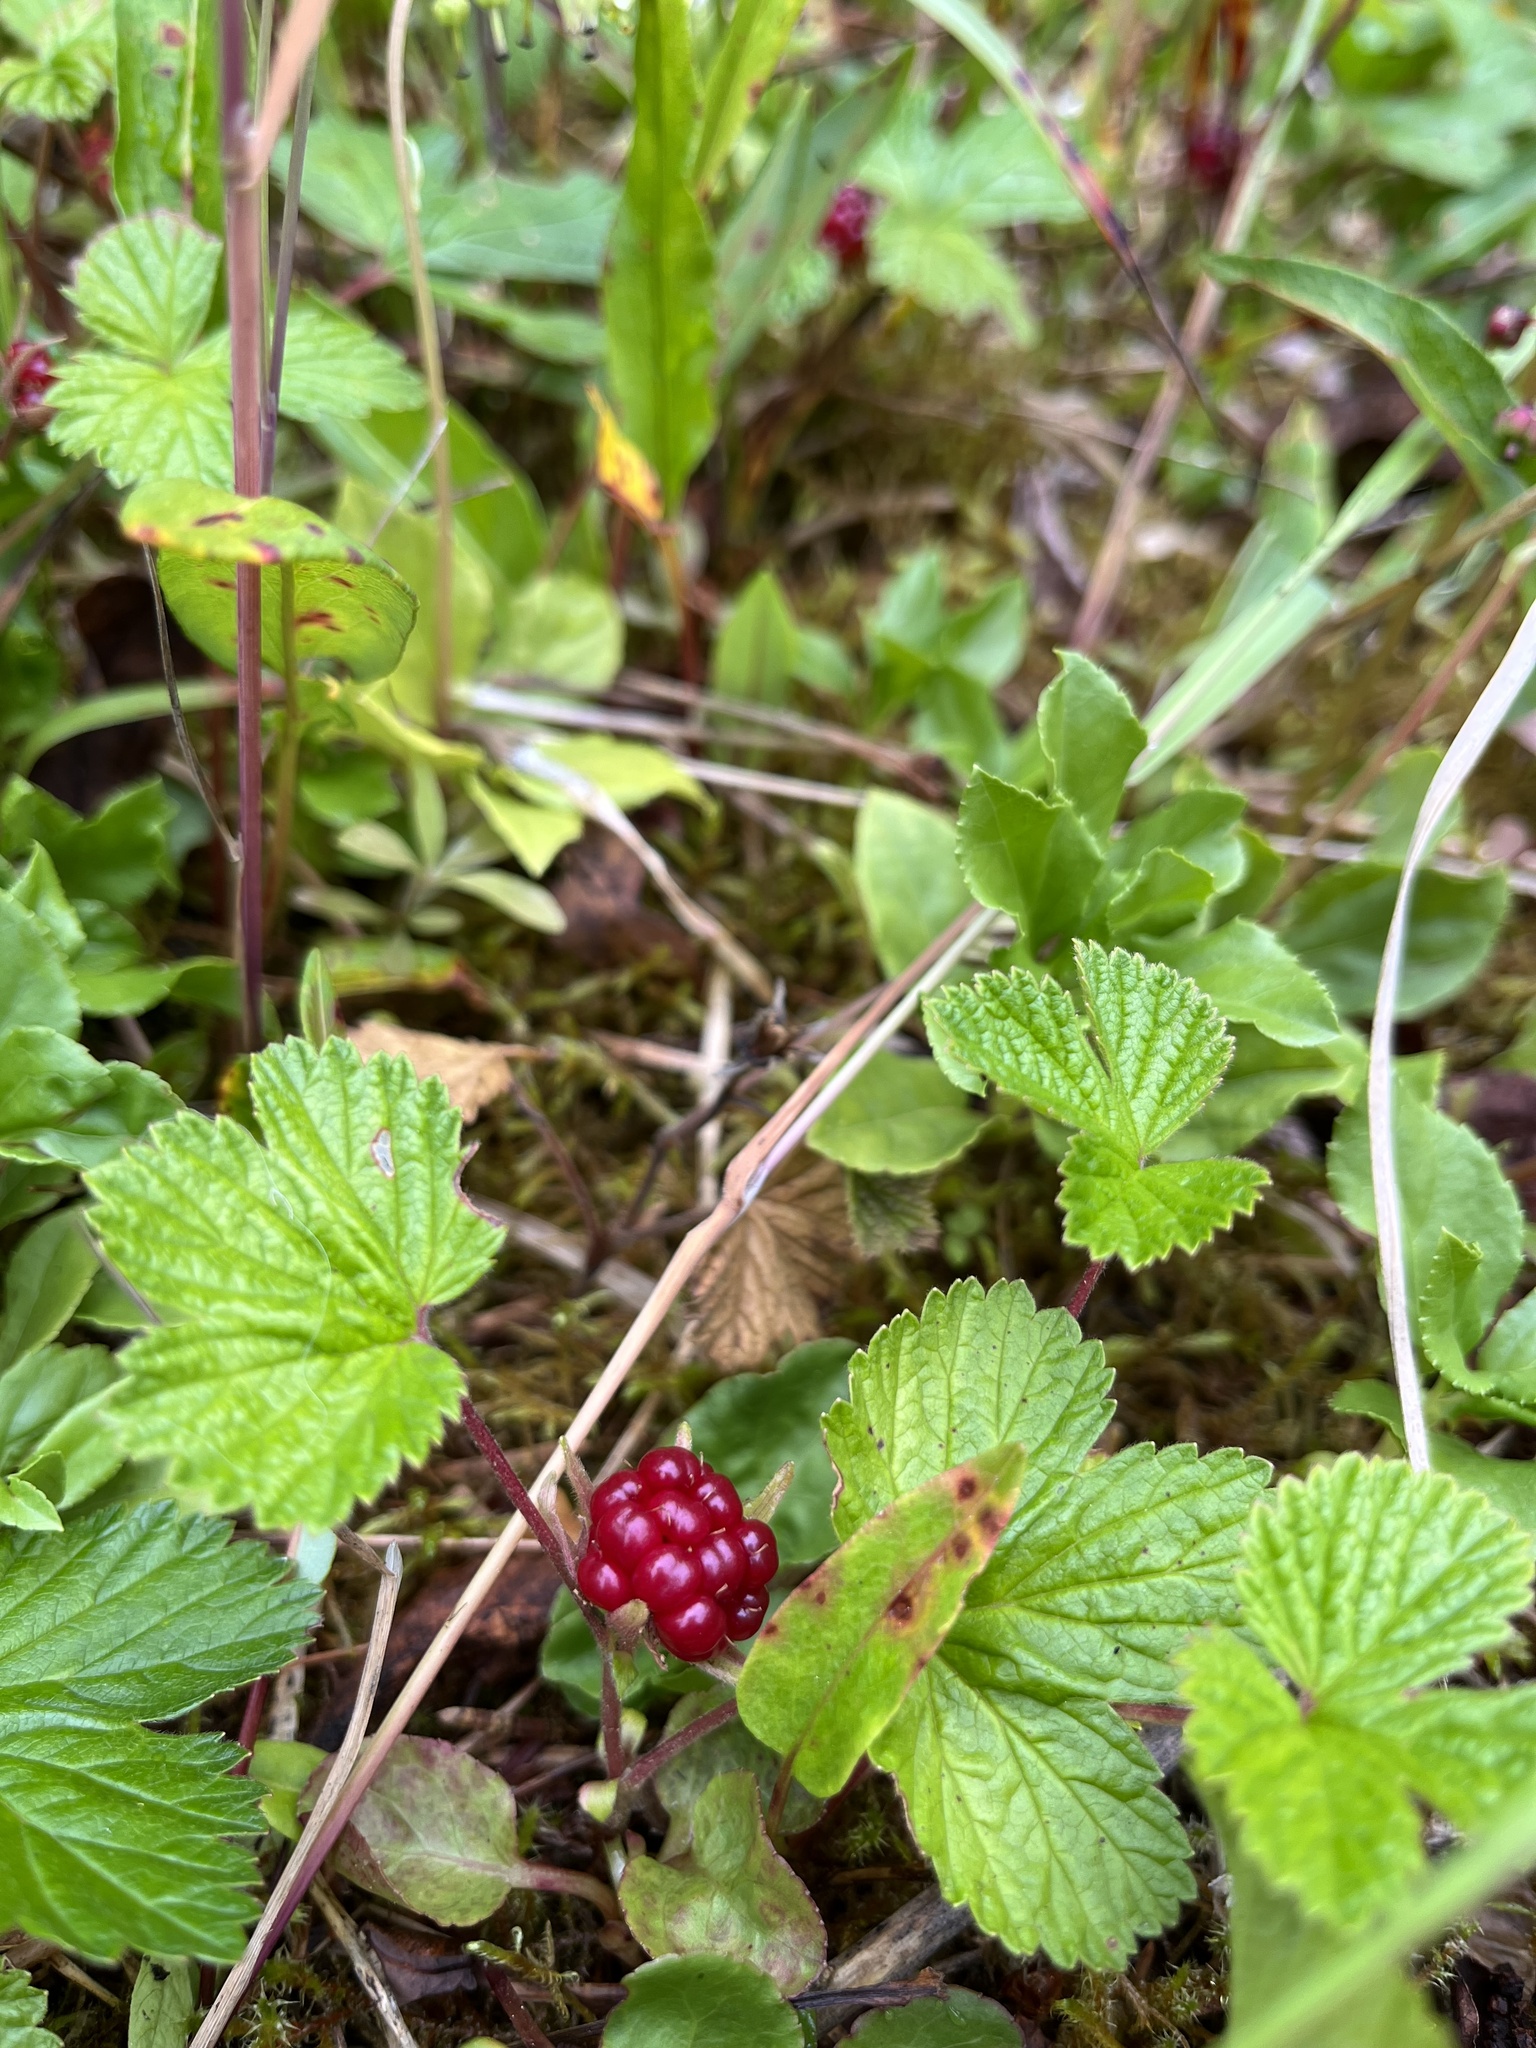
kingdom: Plantae
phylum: Tracheophyta
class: Magnoliopsida
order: Rosales
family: Rosaceae
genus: Rubus
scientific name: Rubus arcticus
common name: Arctic bramble
